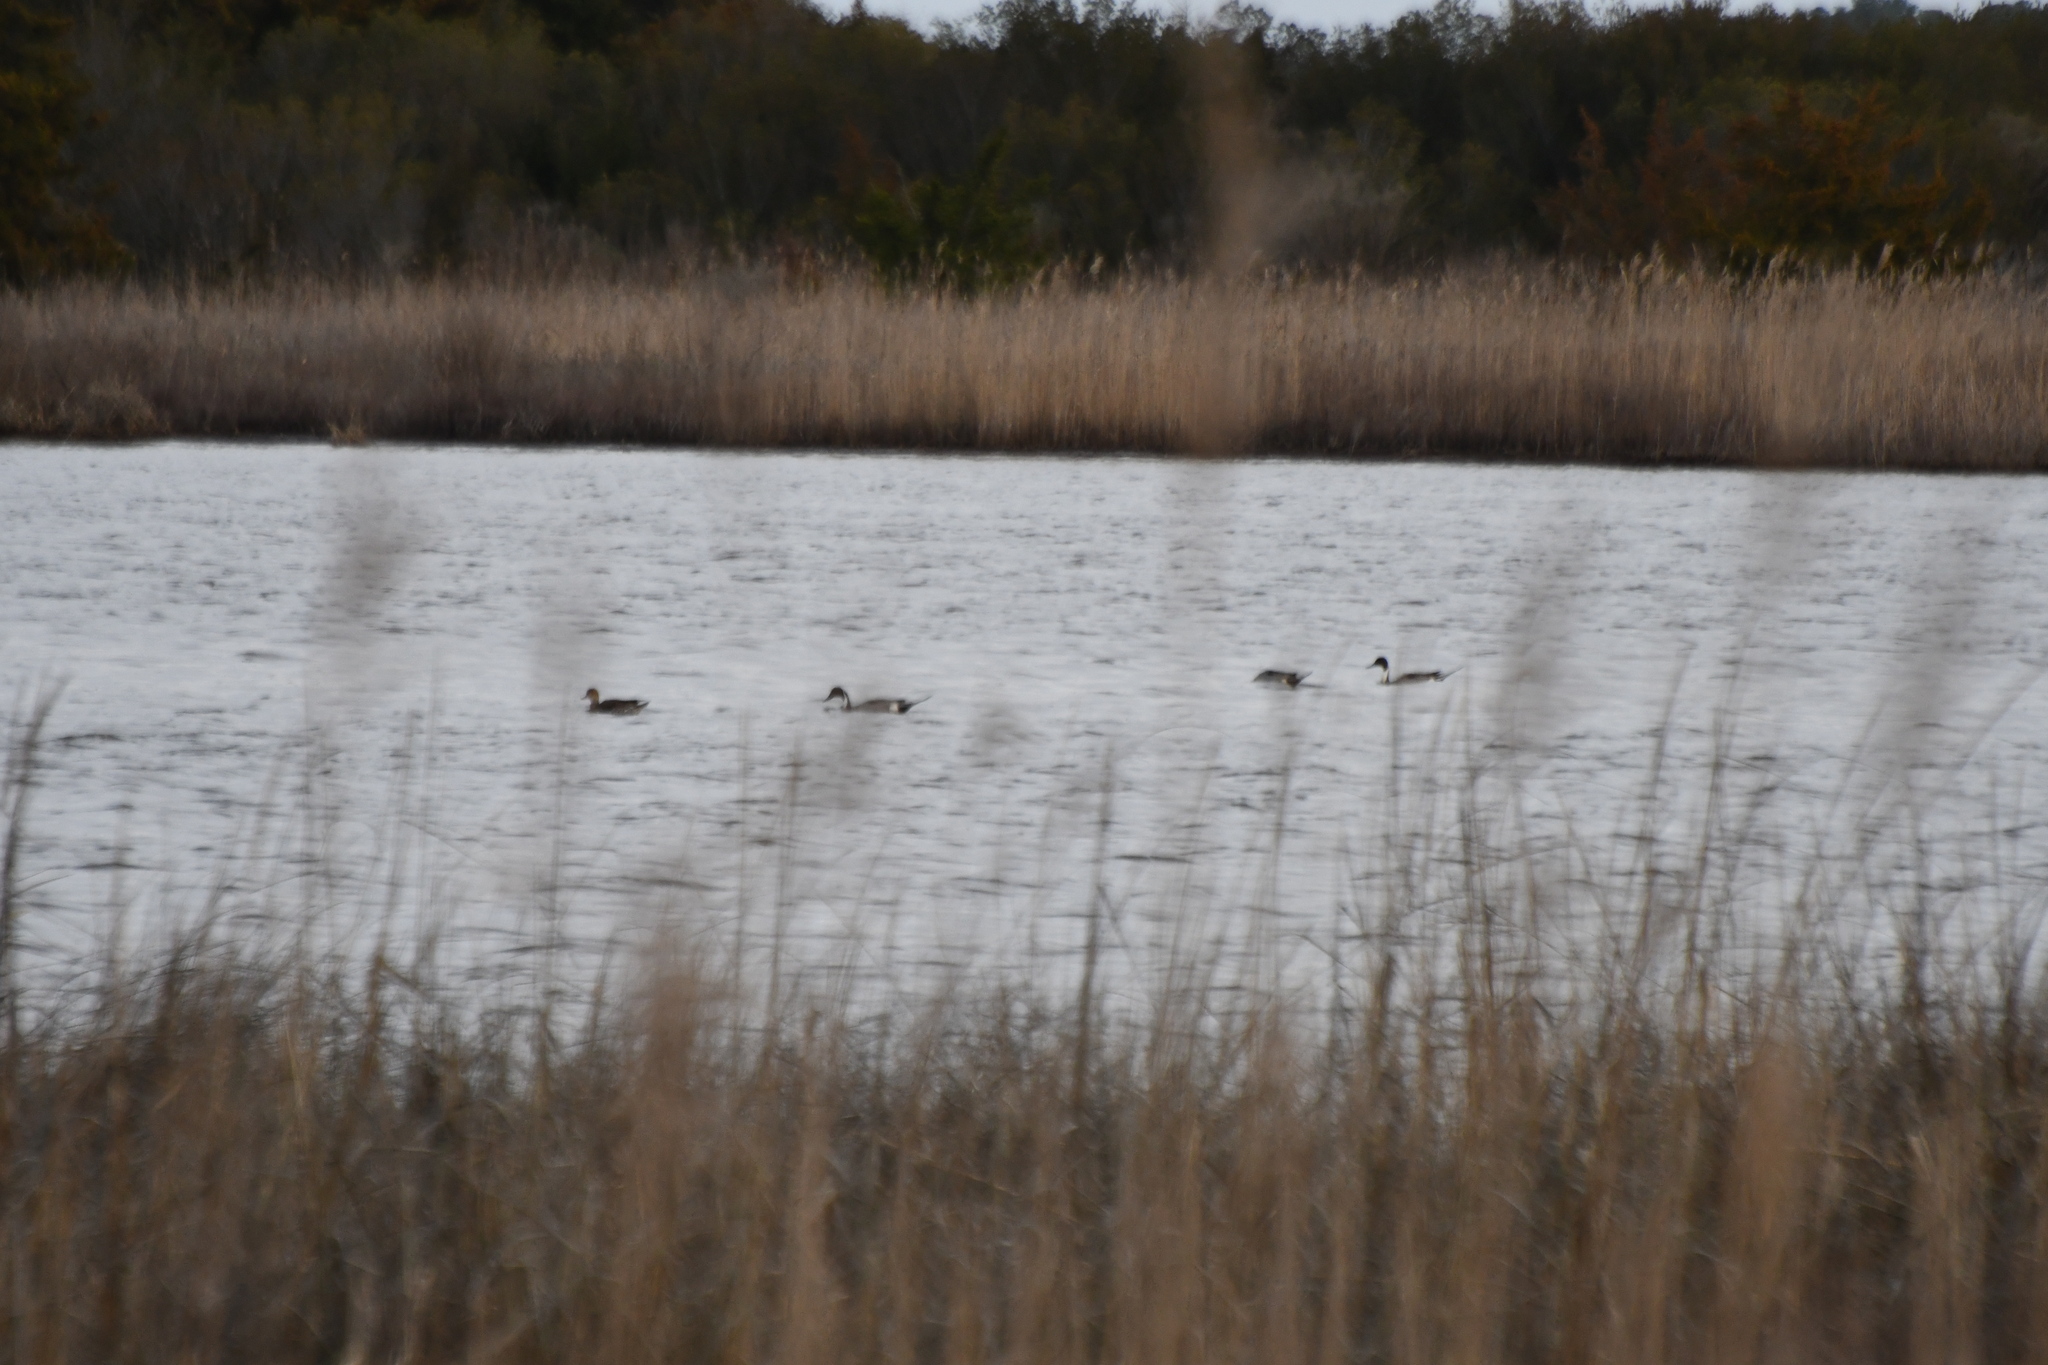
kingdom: Animalia
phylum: Chordata
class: Aves
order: Anseriformes
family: Anatidae
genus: Anas
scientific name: Anas acuta
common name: Northern pintail
